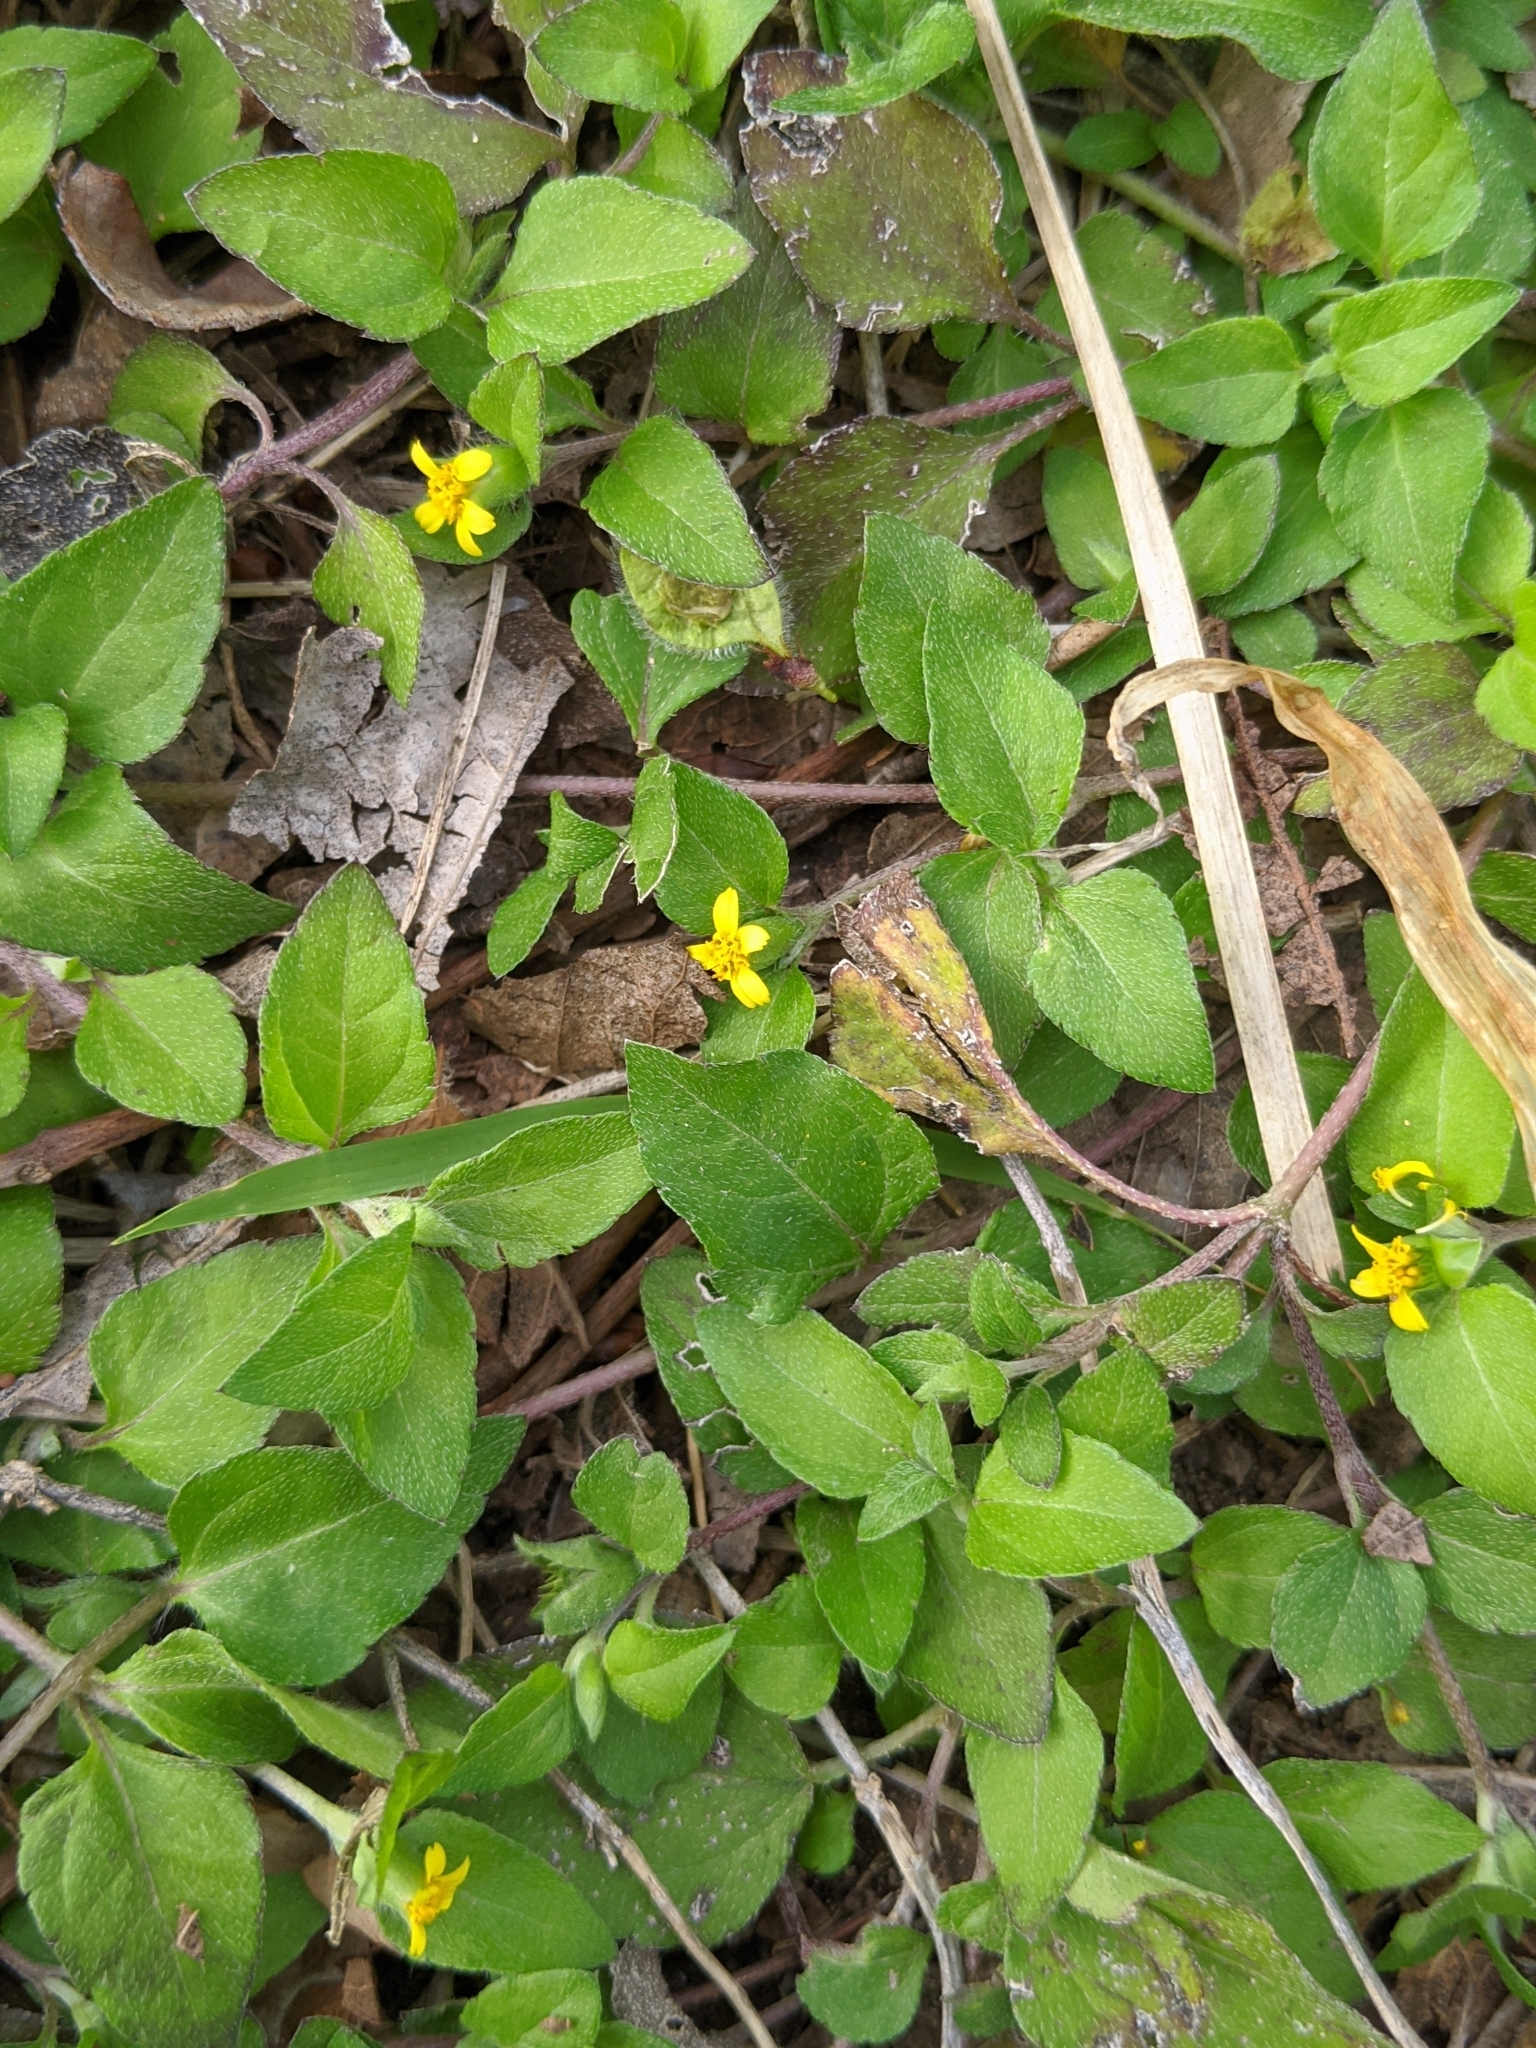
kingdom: Plantae
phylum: Tracheophyta
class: Magnoliopsida
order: Asterales
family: Asteraceae
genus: Calyptocarpus
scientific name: Calyptocarpus vialis
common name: Straggler daisy
